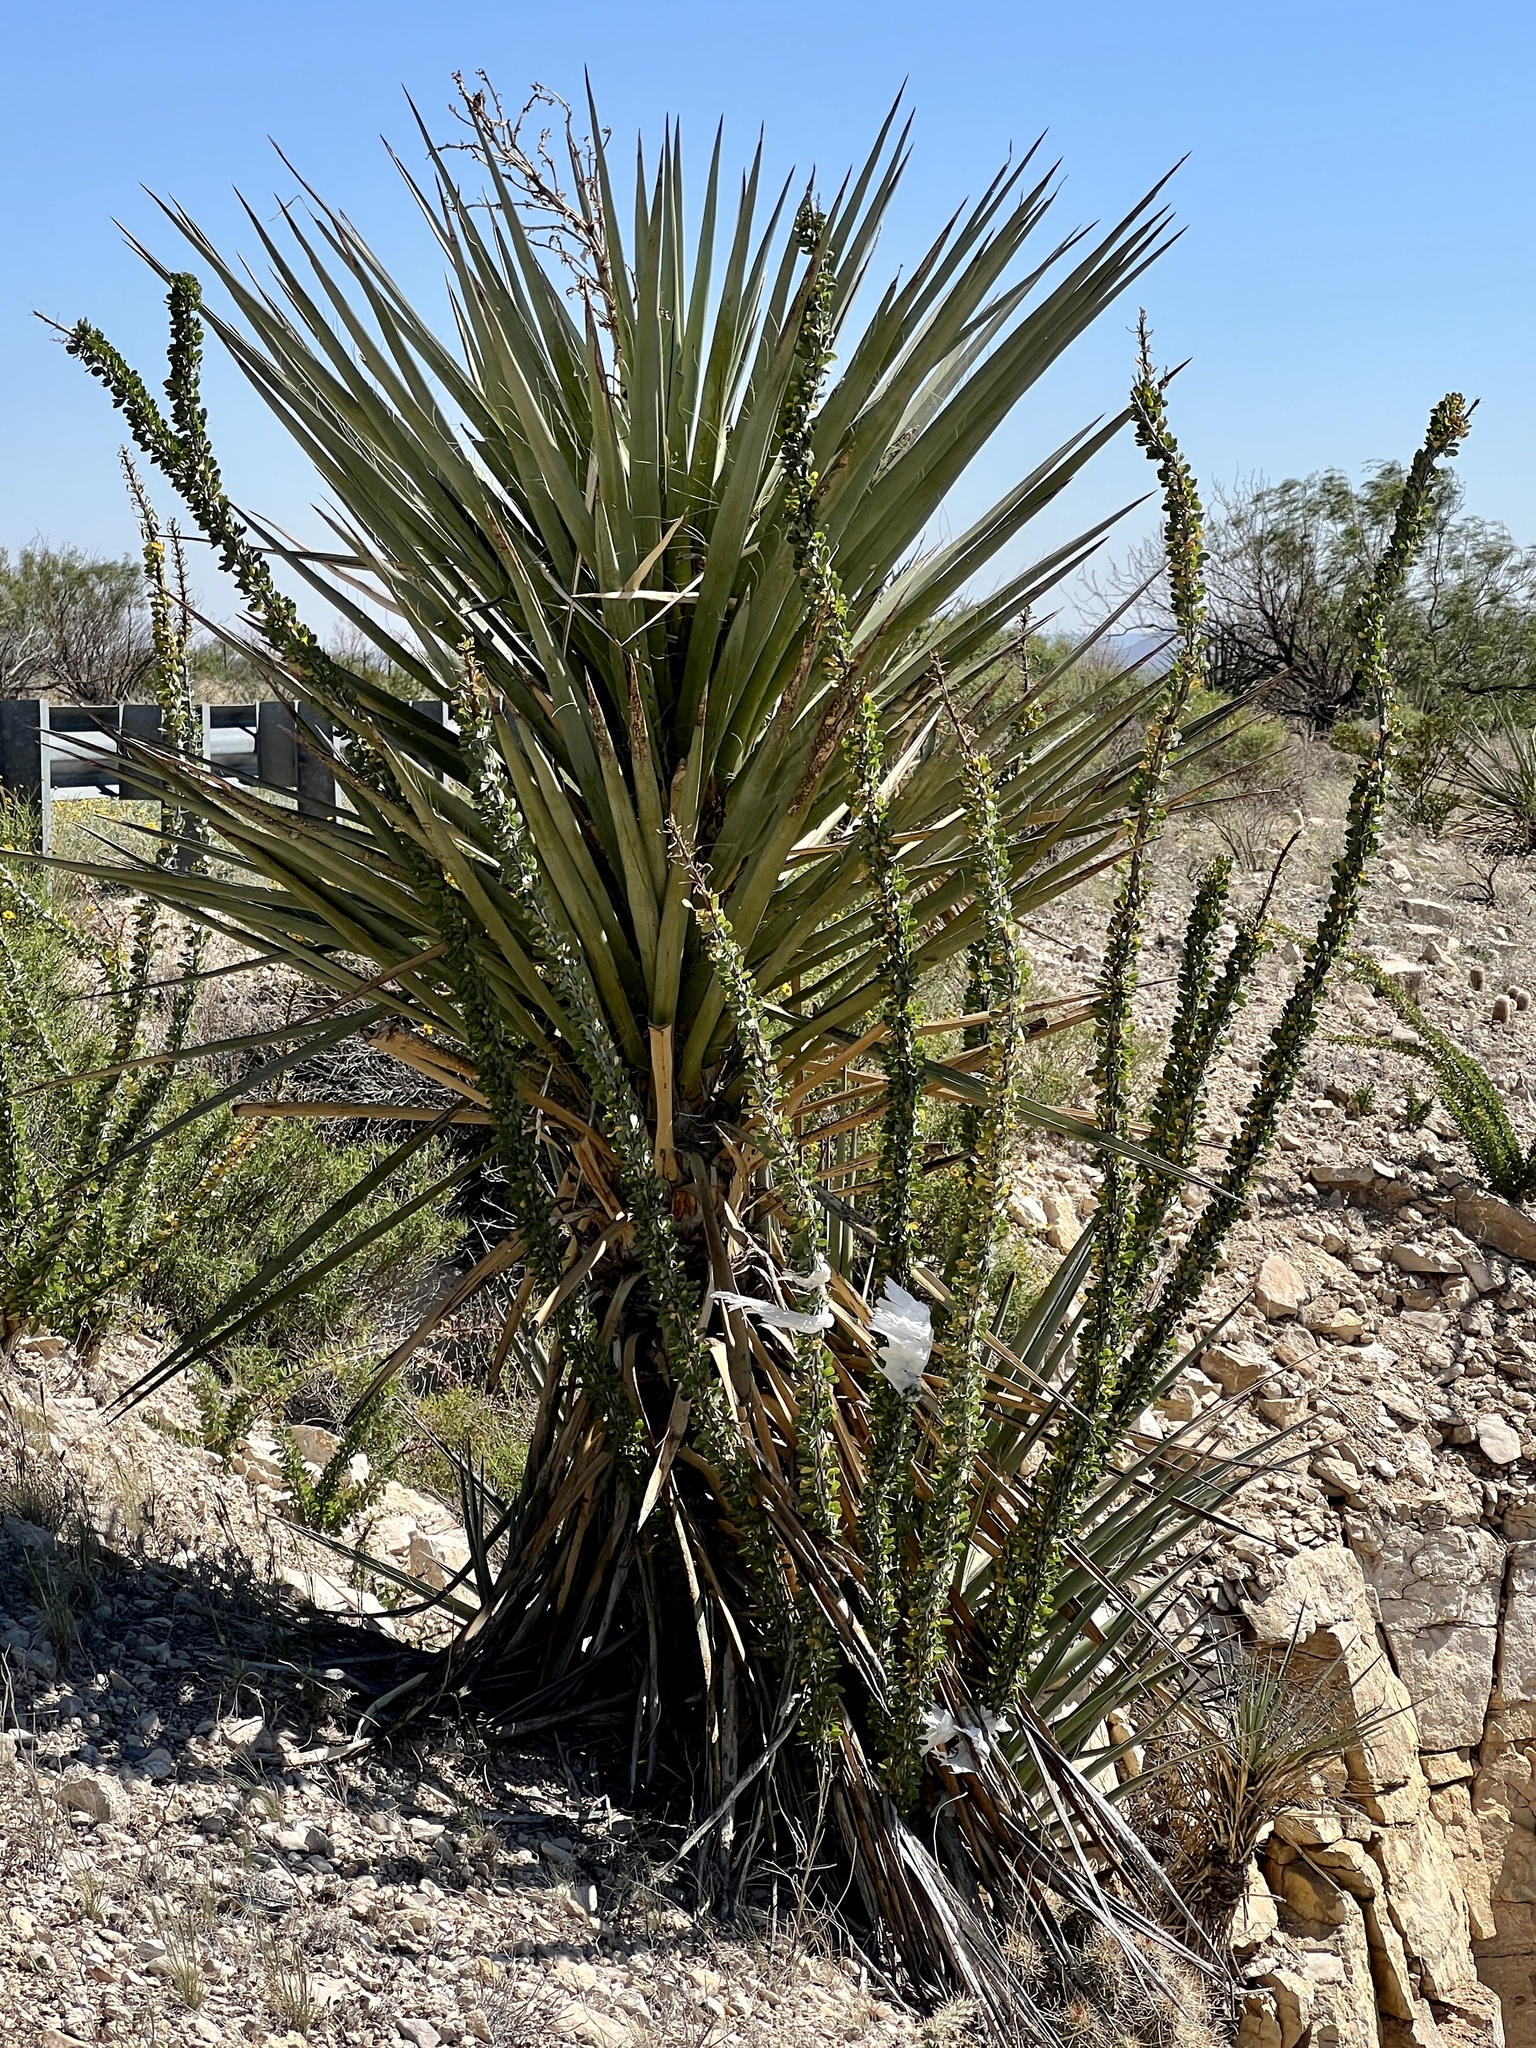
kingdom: Plantae
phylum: Tracheophyta
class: Magnoliopsida
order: Ericales
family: Fouquieriaceae
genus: Fouquieria
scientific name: Fouquieria splendens
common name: Vine-cactus
